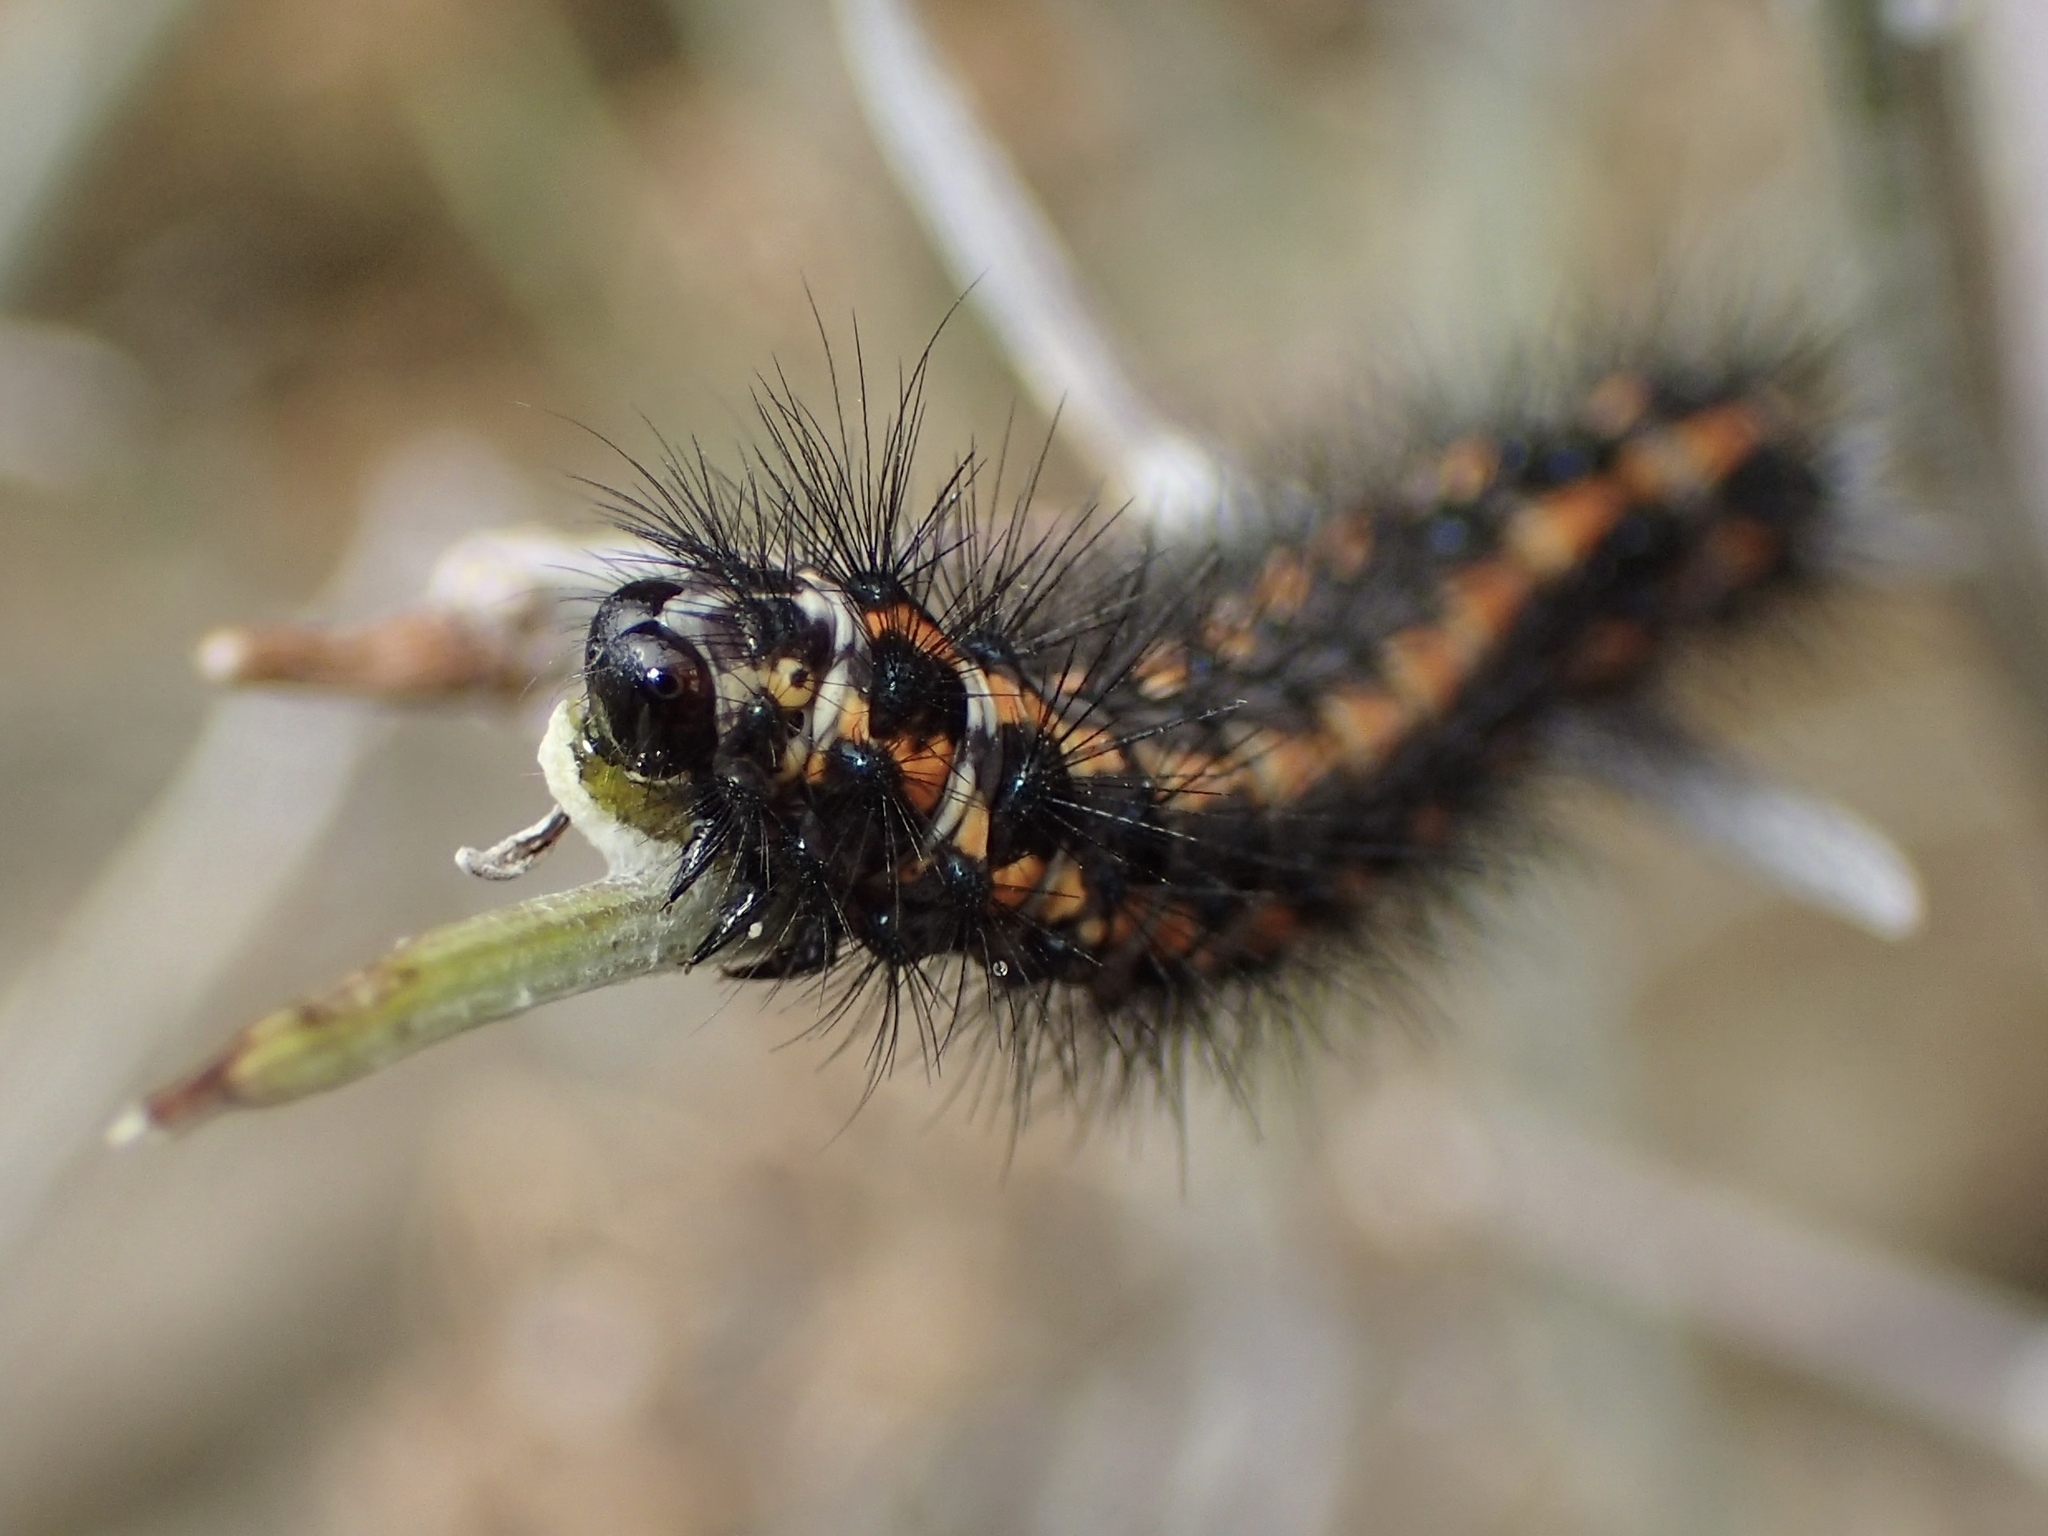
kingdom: Animalia
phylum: Arthropoda
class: Insecta
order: Lepidoptera
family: Erebidae
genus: Nyctemera
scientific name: Nyctemera annulatum
